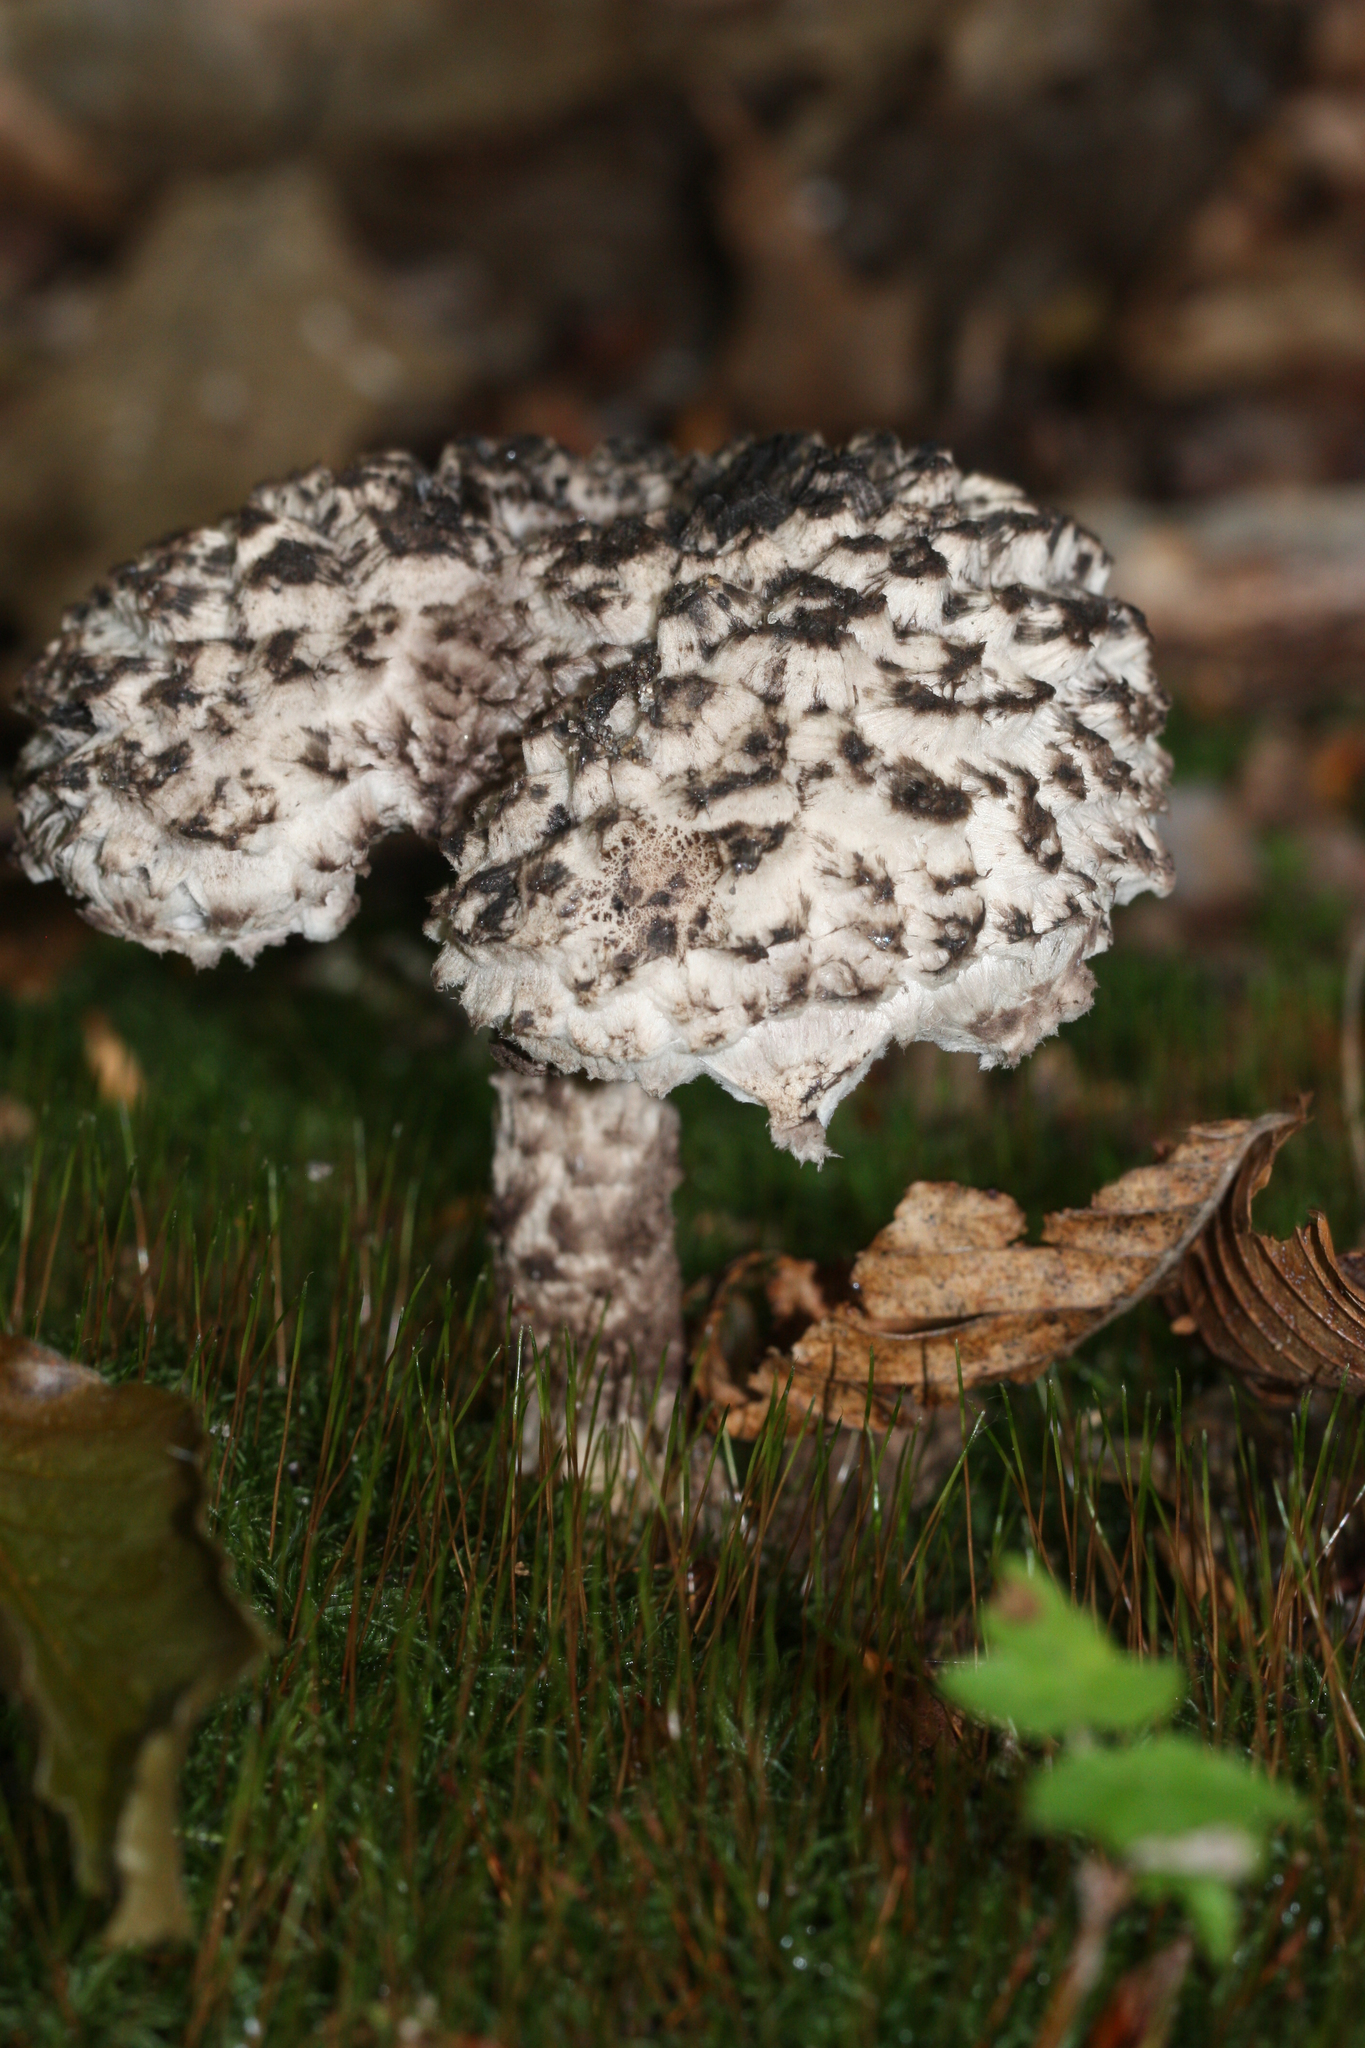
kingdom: Fungi
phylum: Basidiomycota
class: Agaricomycetes
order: Boletales
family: Boletaceae
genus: Strobilomyces
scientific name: Strobilomyces strobilaceus
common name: Old man of the woods
